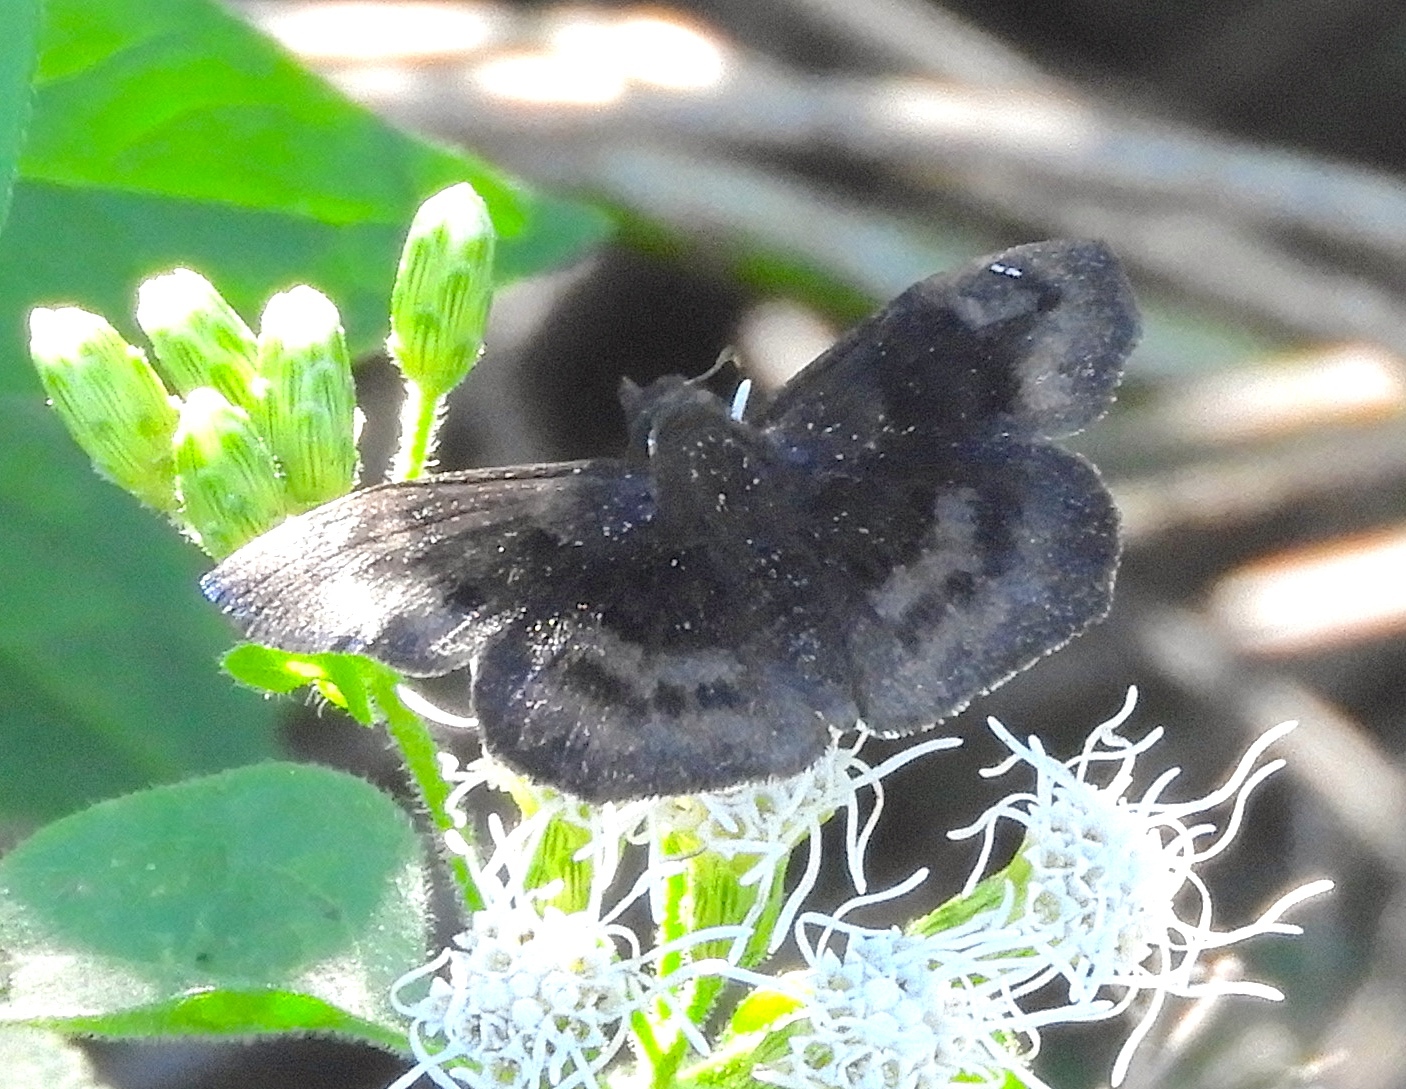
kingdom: Animalia
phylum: Arthropoda
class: Insecta
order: Lepidoptera
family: Hesperiidae
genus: Pyrginae
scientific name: Pyrginae
